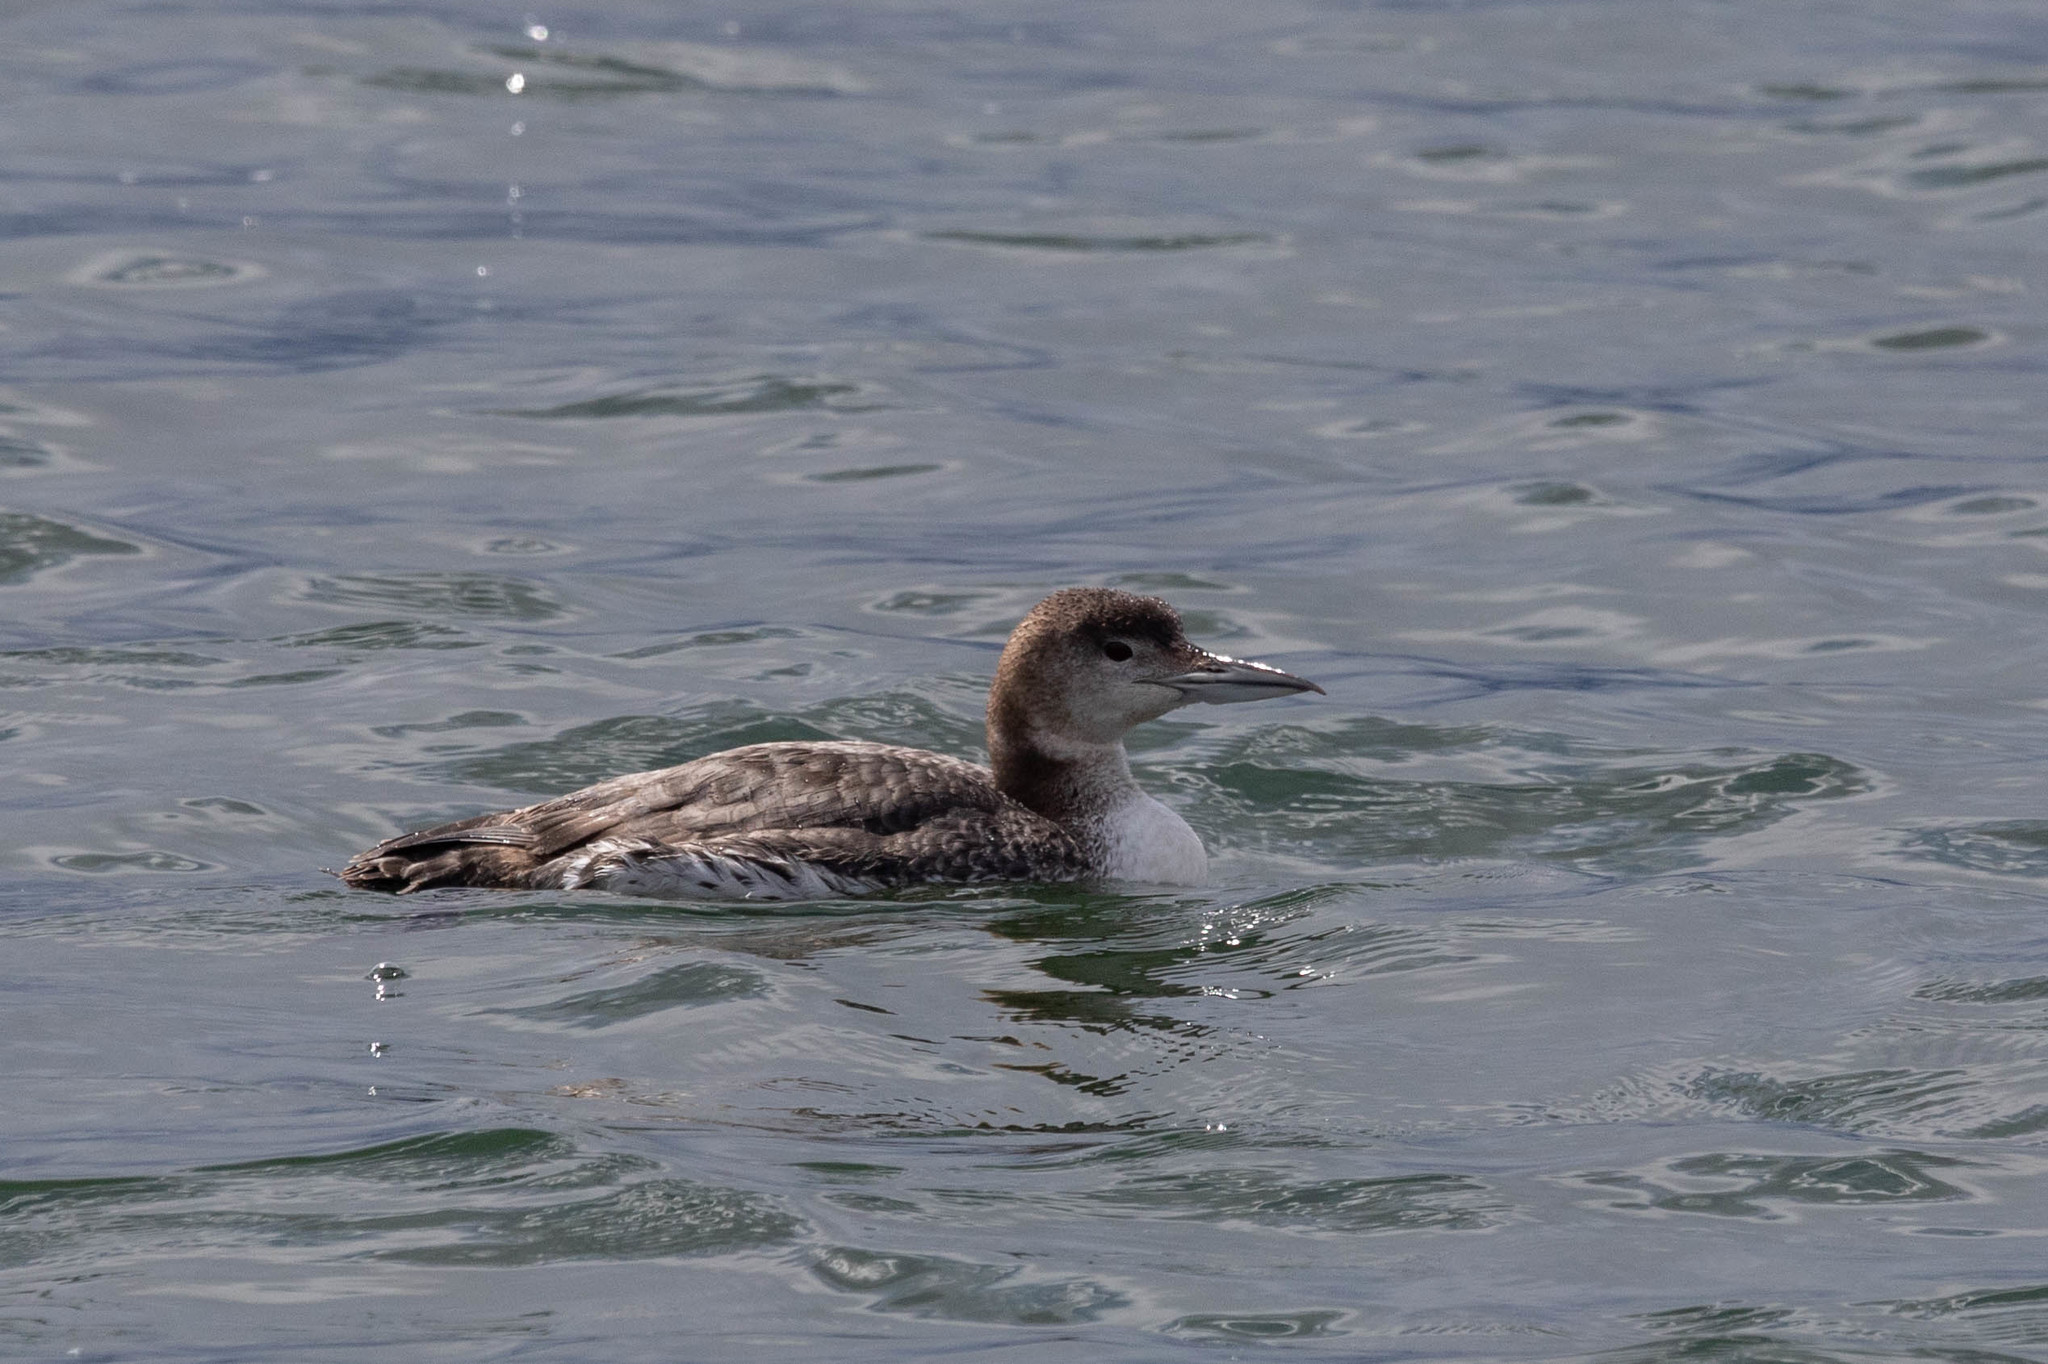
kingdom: Animalia
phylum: Chordata
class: Aves
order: Gaviiformes
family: Gaviidae
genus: Gavia
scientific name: Gavia immer
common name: Common loon
